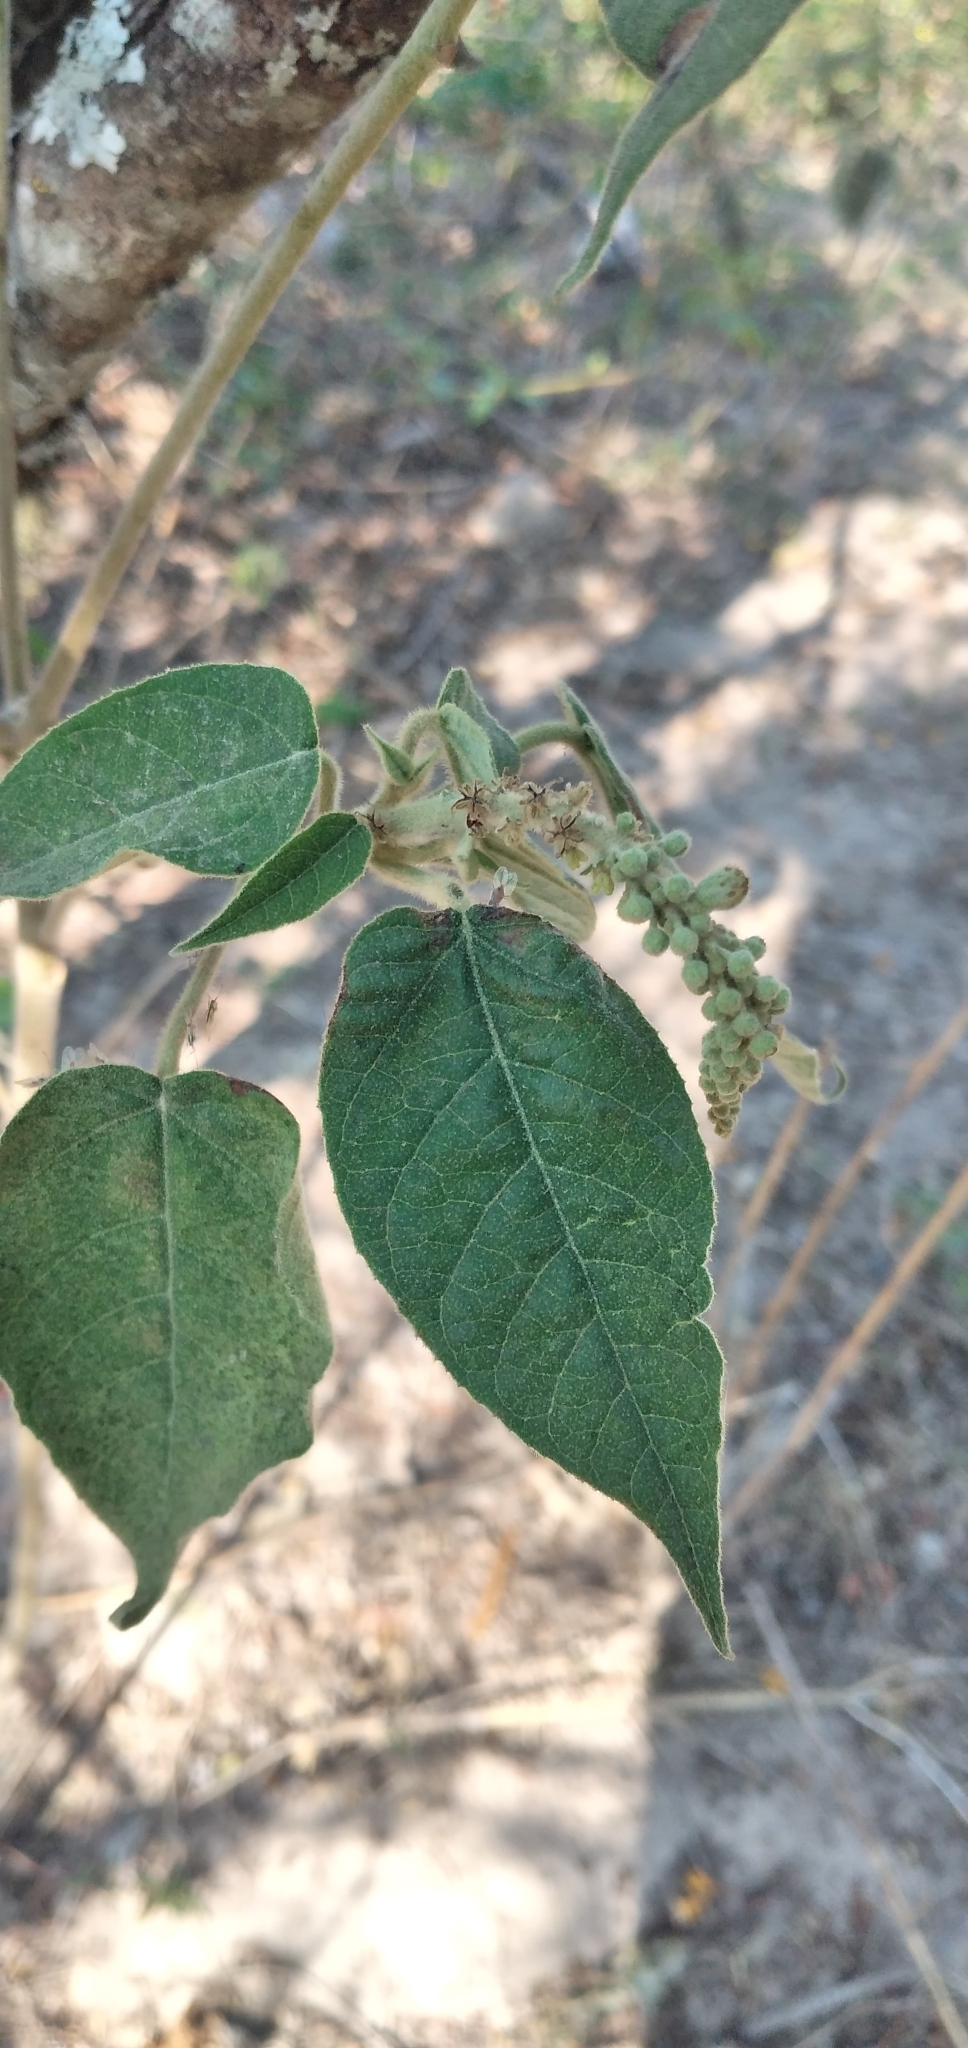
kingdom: Plantae
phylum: Tracheophyta
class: Magnoliopsida
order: Malpighiales
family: Euphorbiaceae
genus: Croton
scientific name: Croton lachnostachyus
